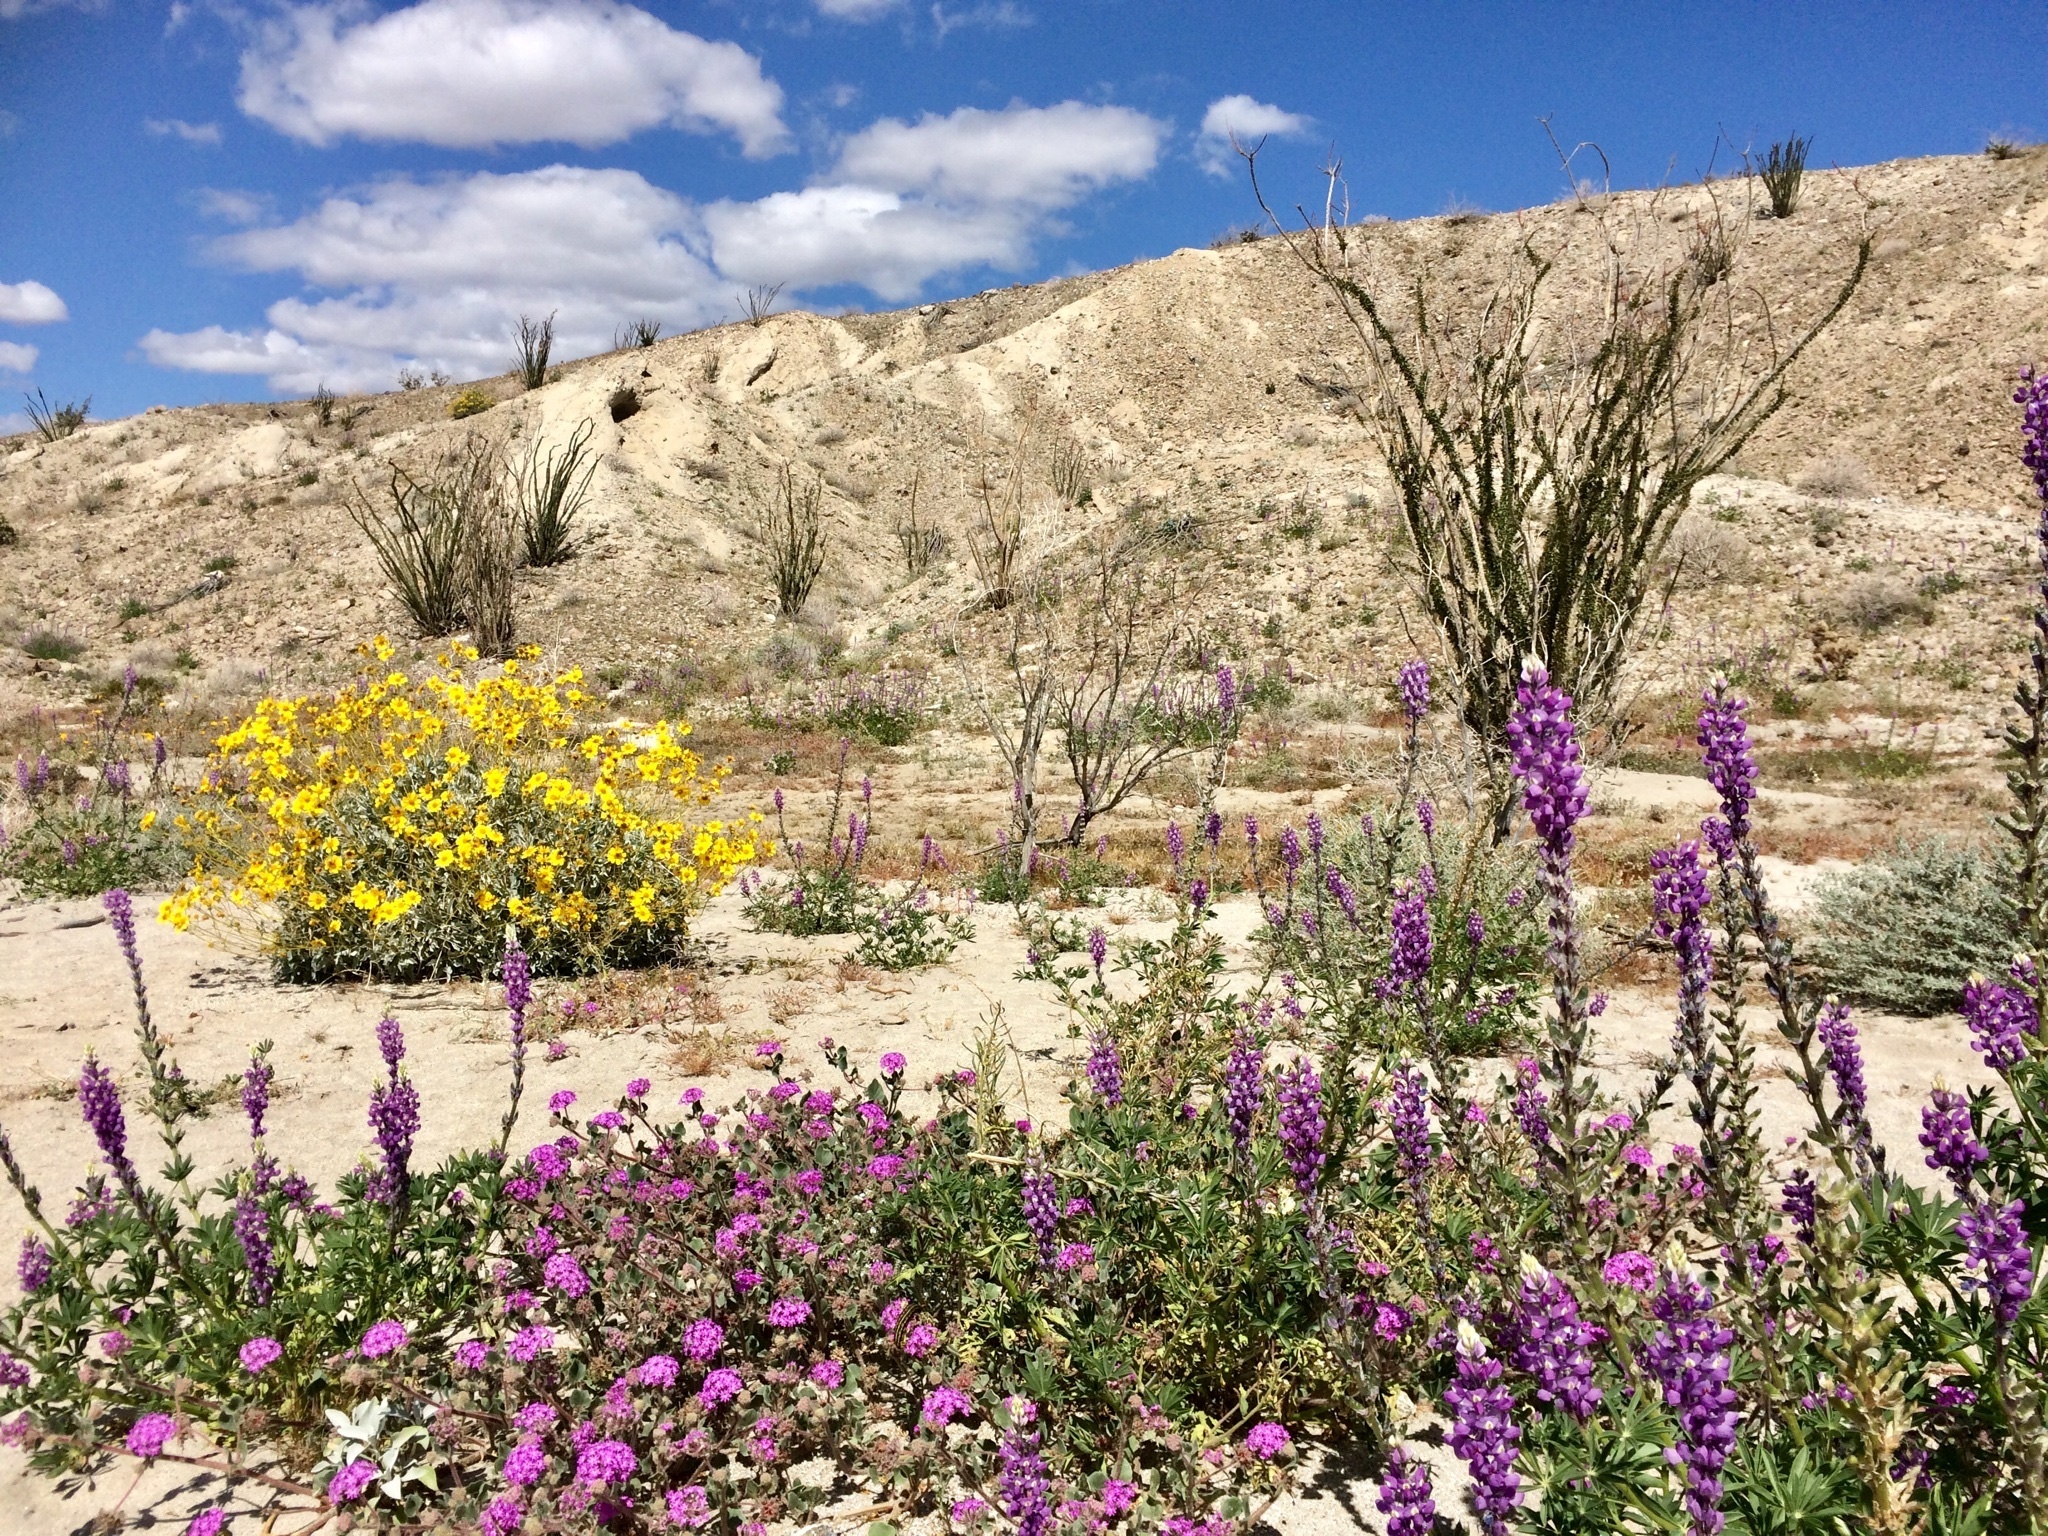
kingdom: Plantae
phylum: Tracheophyta
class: Magnoliopsida
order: Fabales
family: Fabaceae
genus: Lupinus
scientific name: Lupinus arizonicus
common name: Arizona lupine
